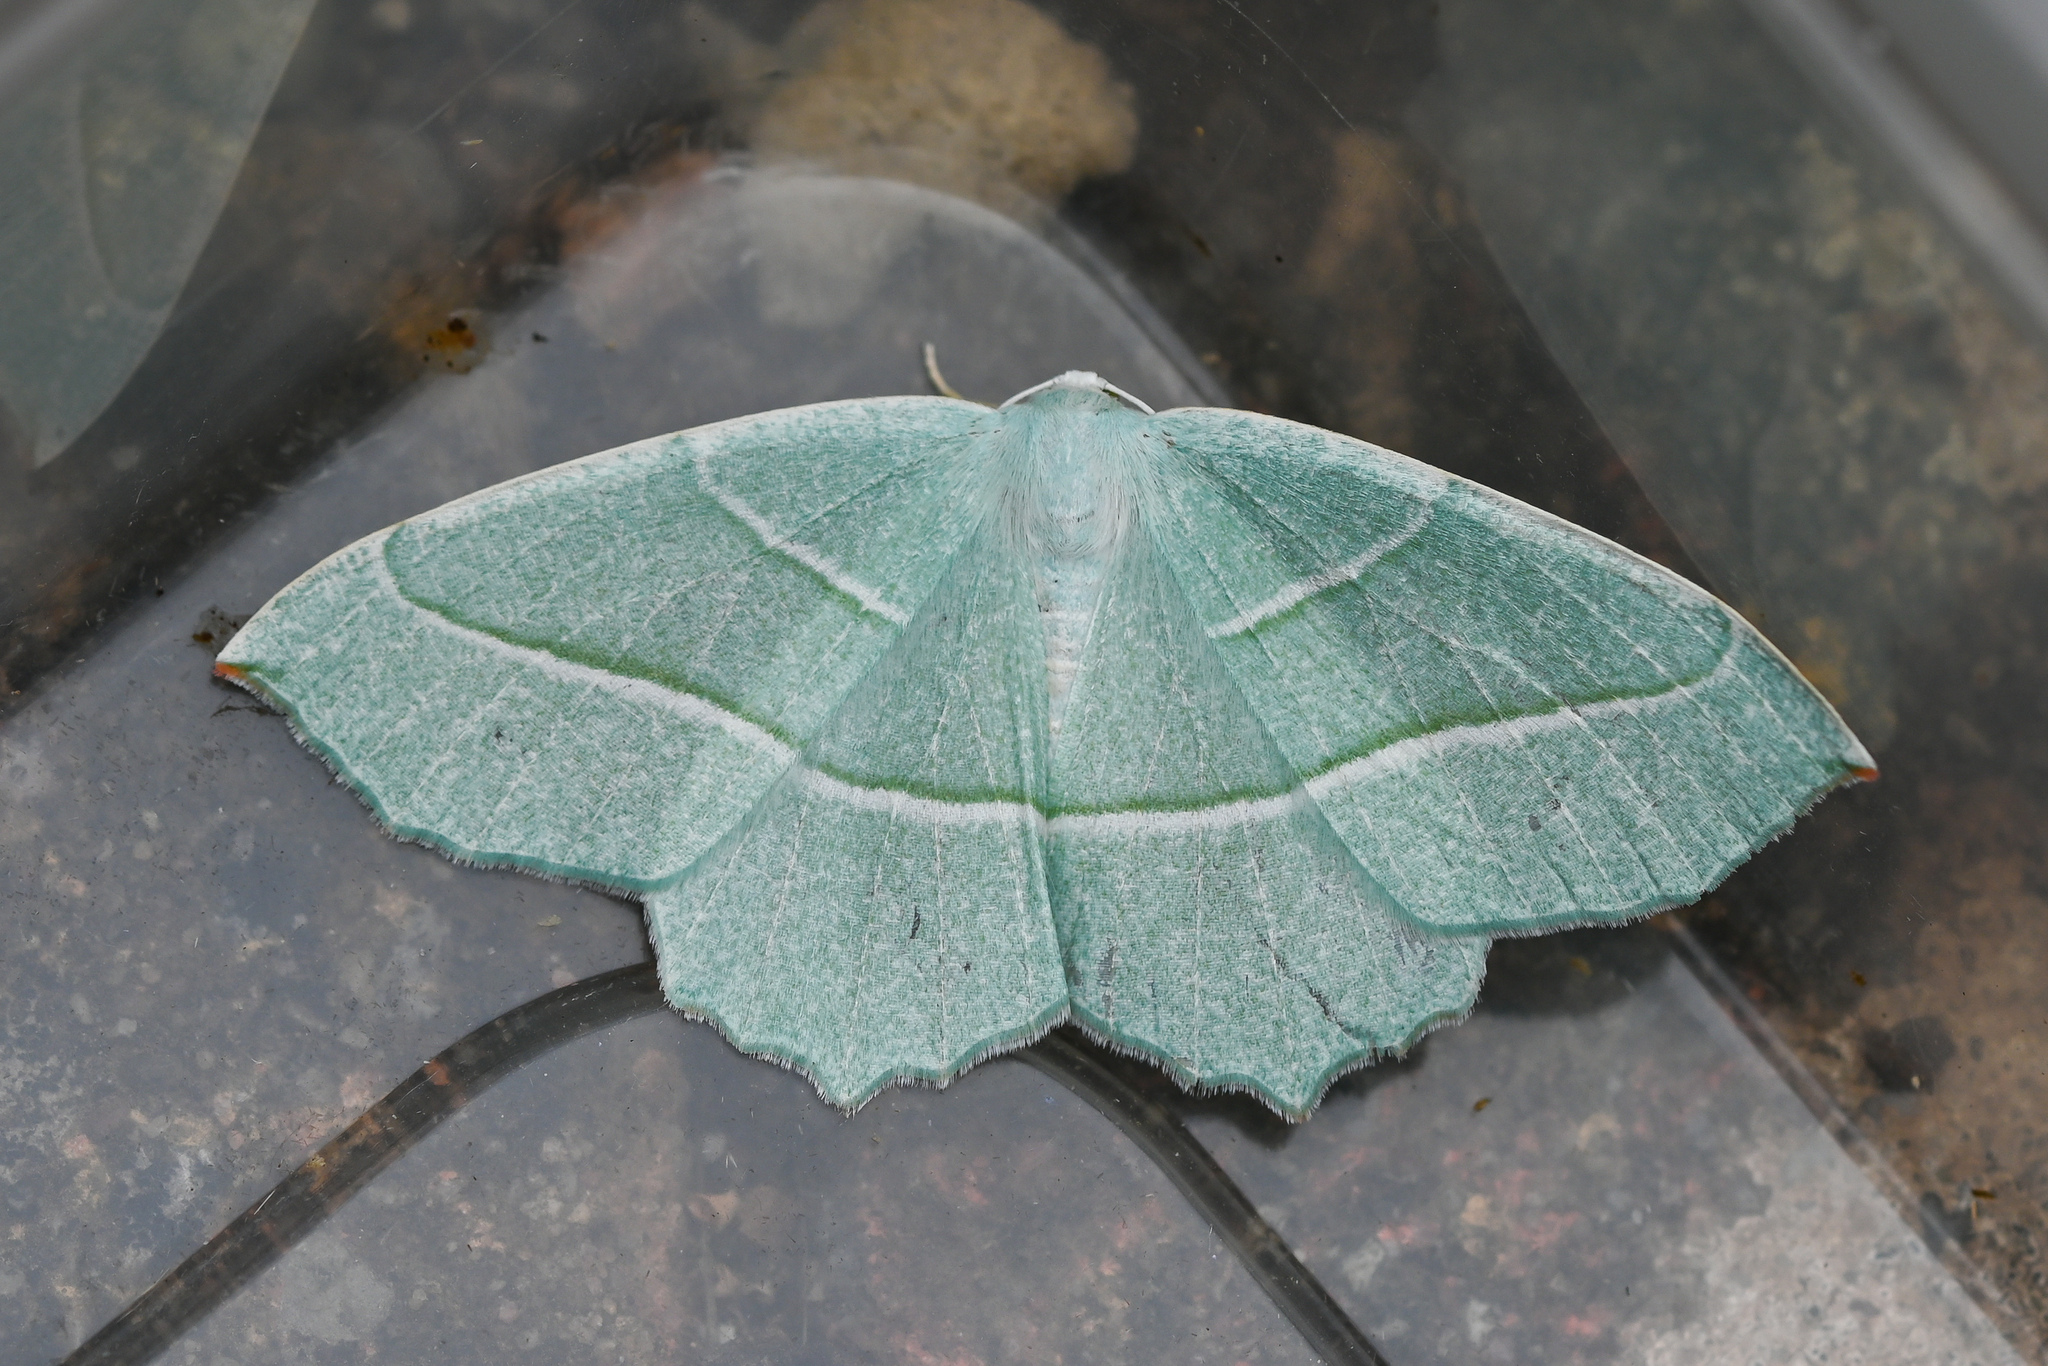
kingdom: Animalia
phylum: Arthropoda
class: Insecta
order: Lepidoptera
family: Geometridae
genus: Campaea
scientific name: Campaea margaritaria
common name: Light emerald
